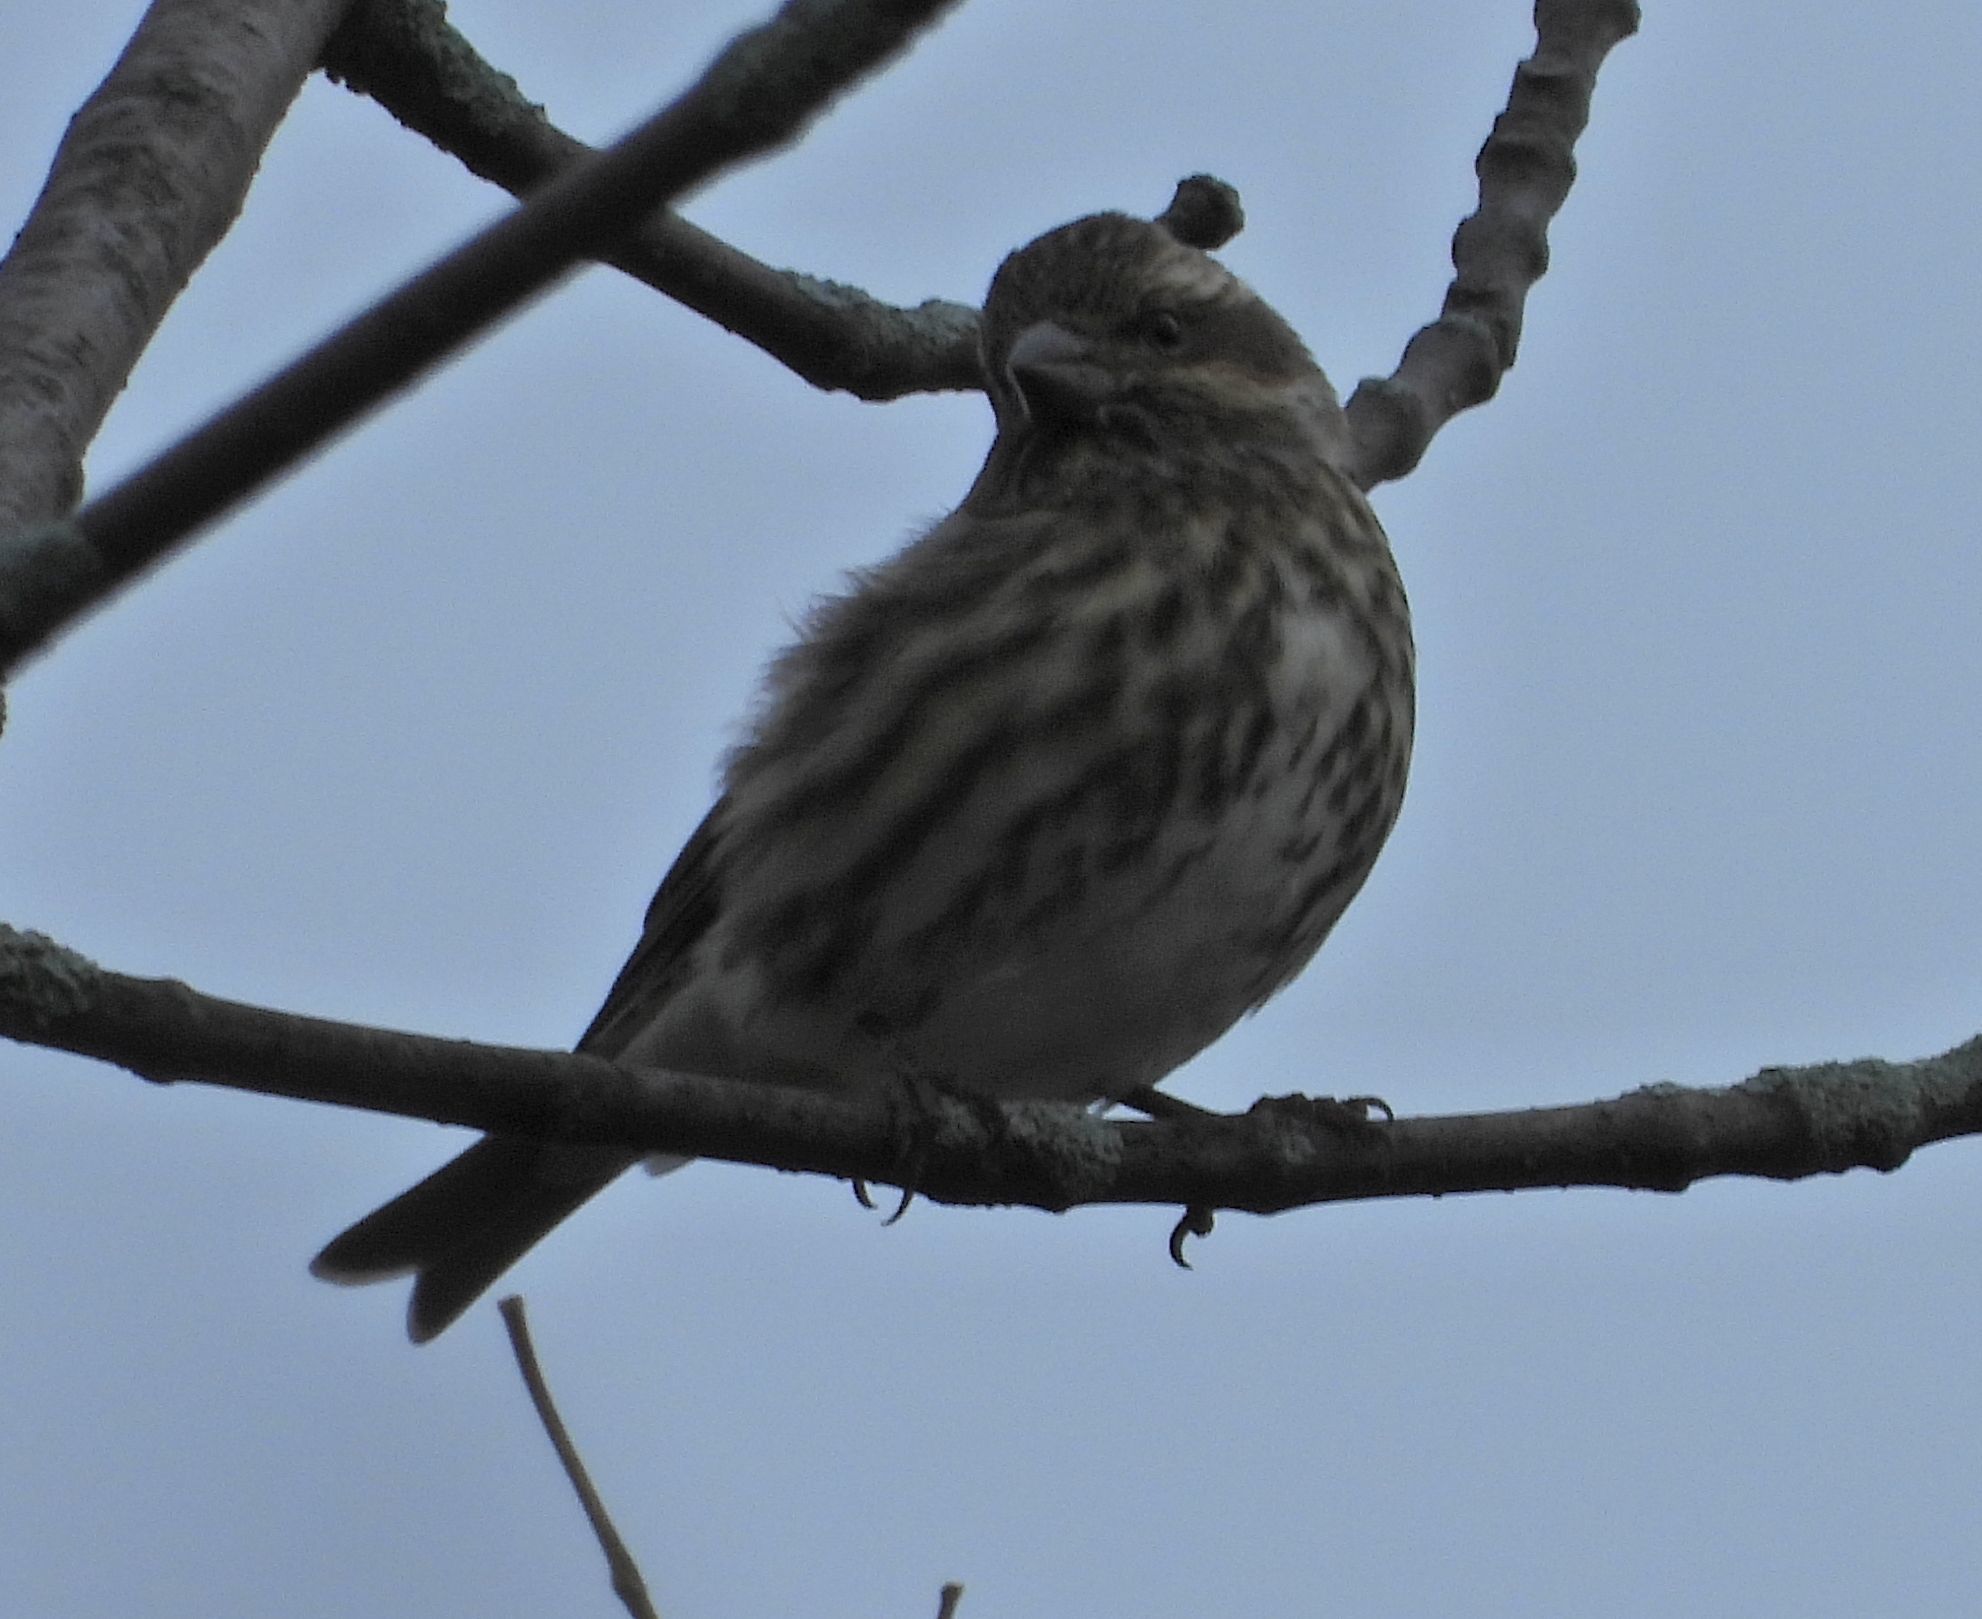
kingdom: Animalia
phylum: Chordata
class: Aves
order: Passeriformes
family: Fringillidae
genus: Haemorhous
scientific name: Haemorhous purpureus
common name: Purple finch
